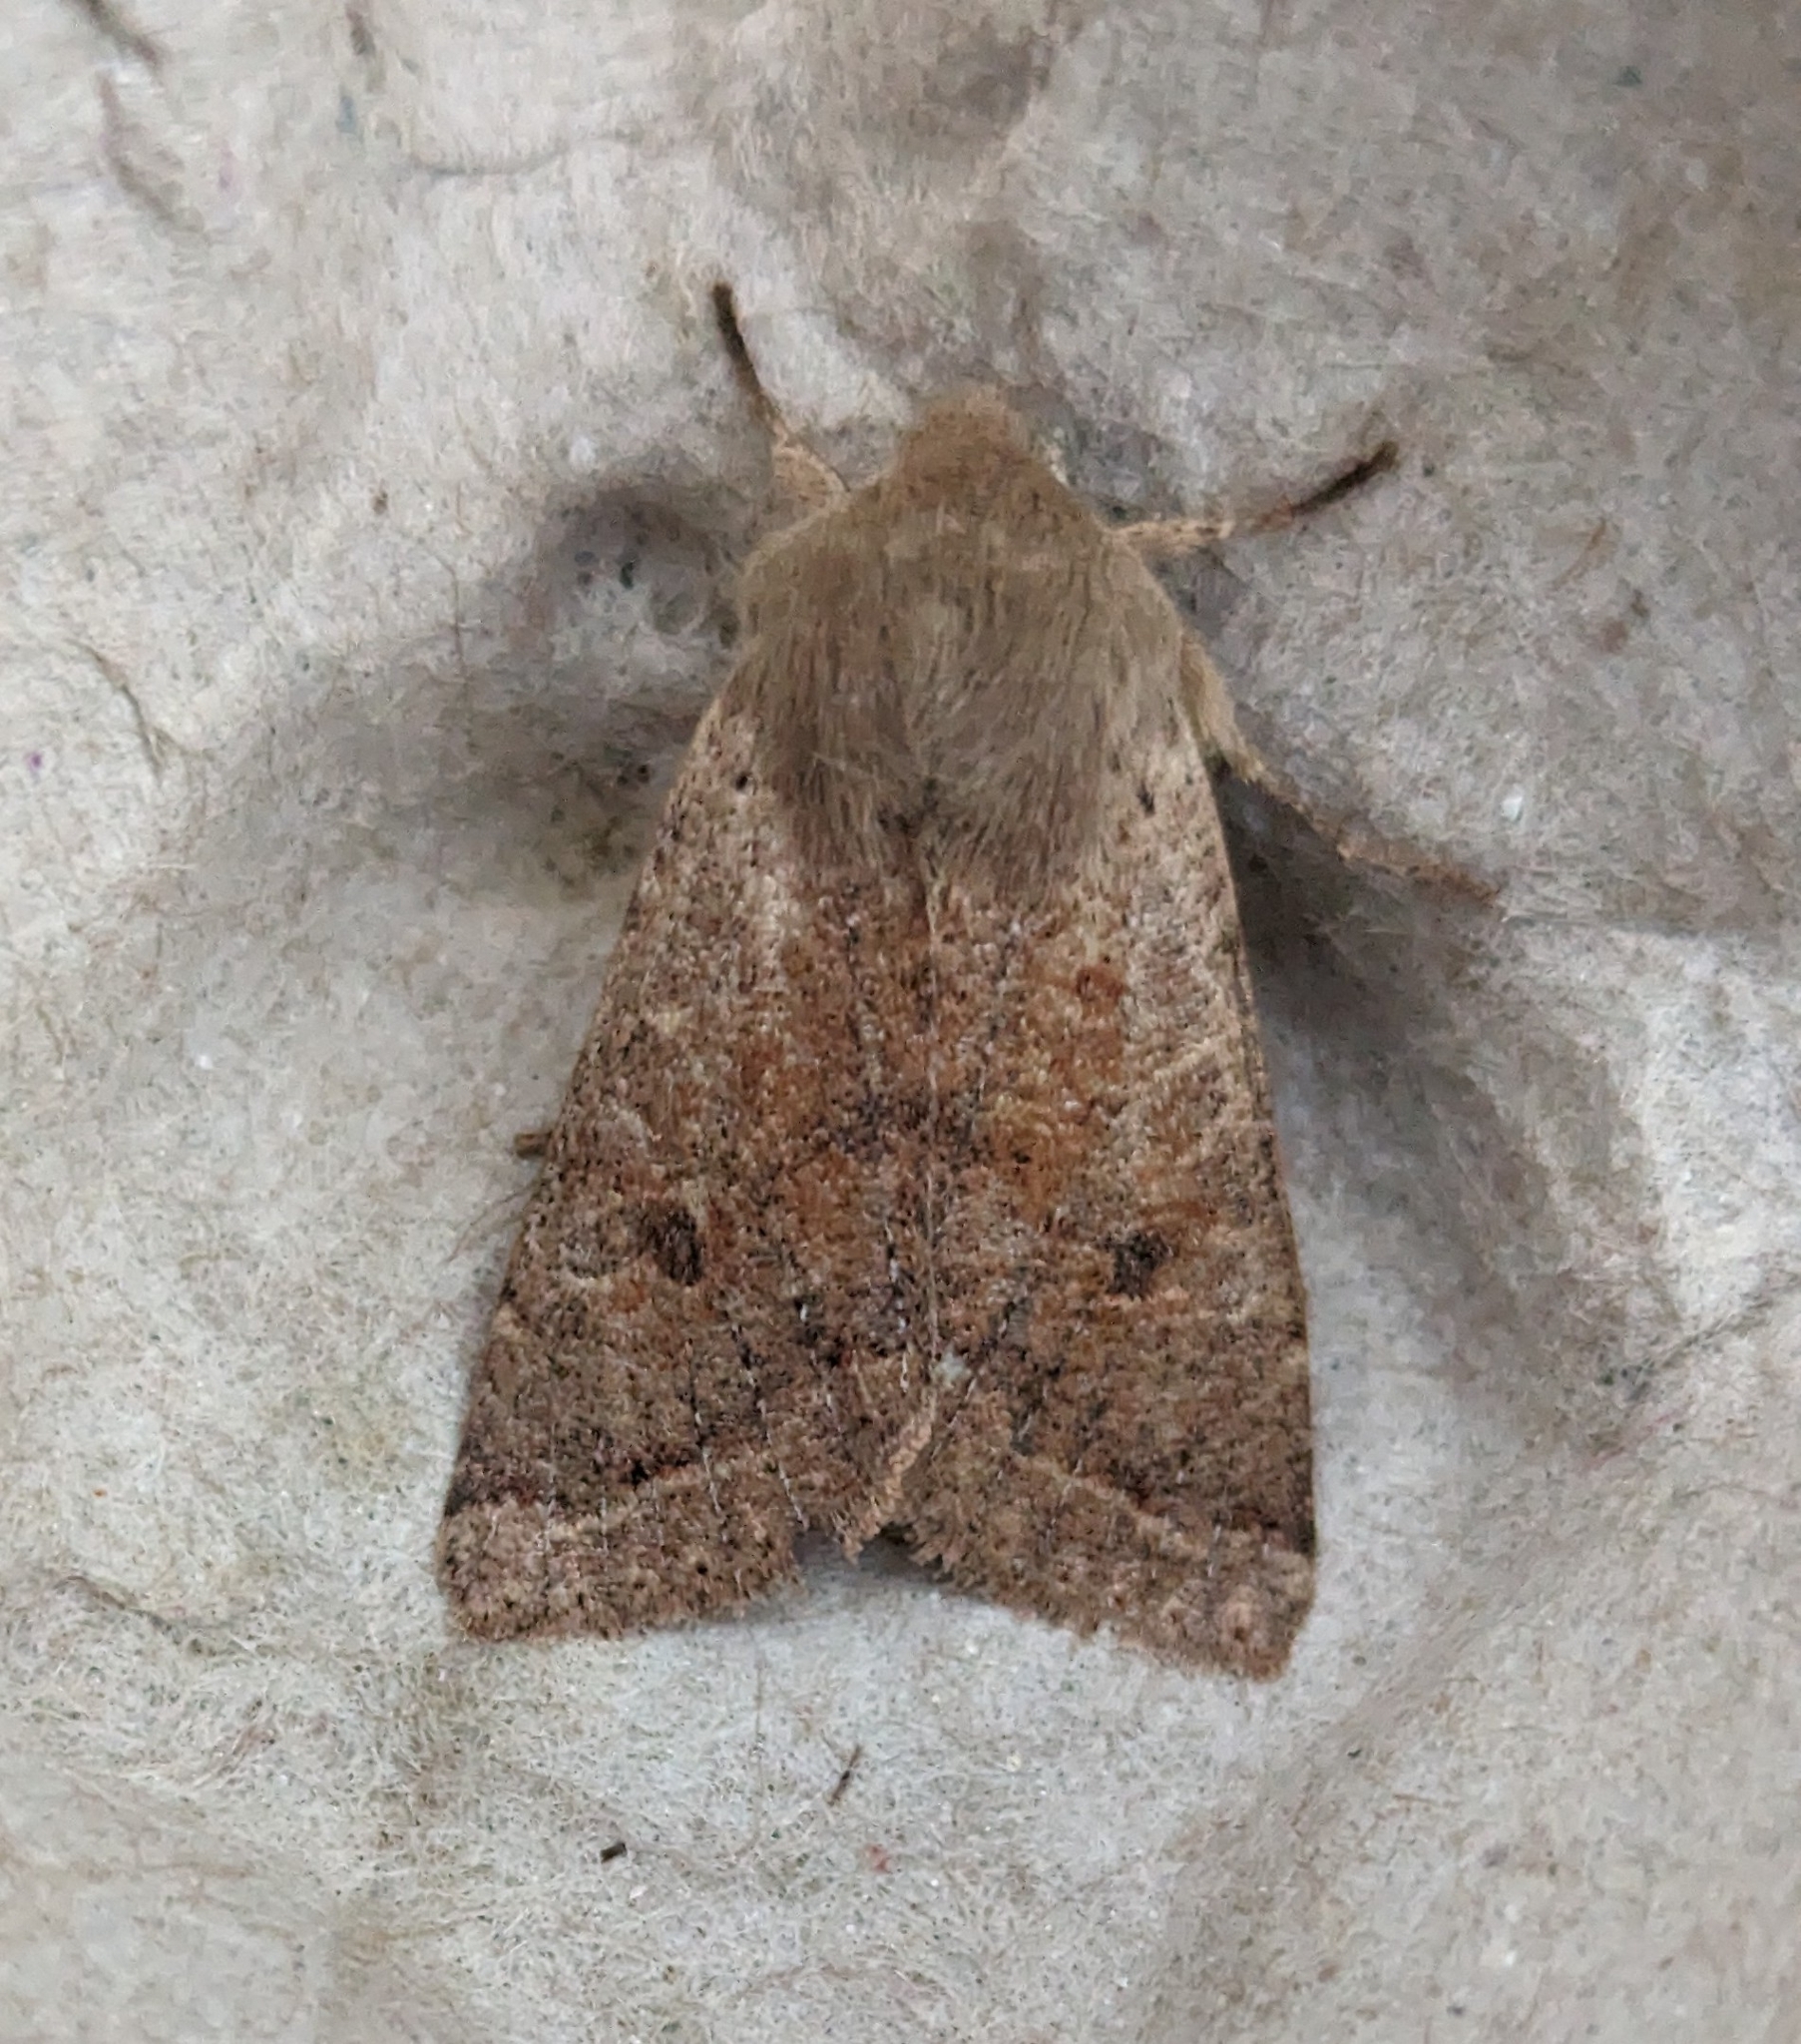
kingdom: Animalia
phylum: Arthropoda
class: Insecta
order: Lepidoptera
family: Noctuidae
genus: Orthosia
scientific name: Orthosia pacifica
